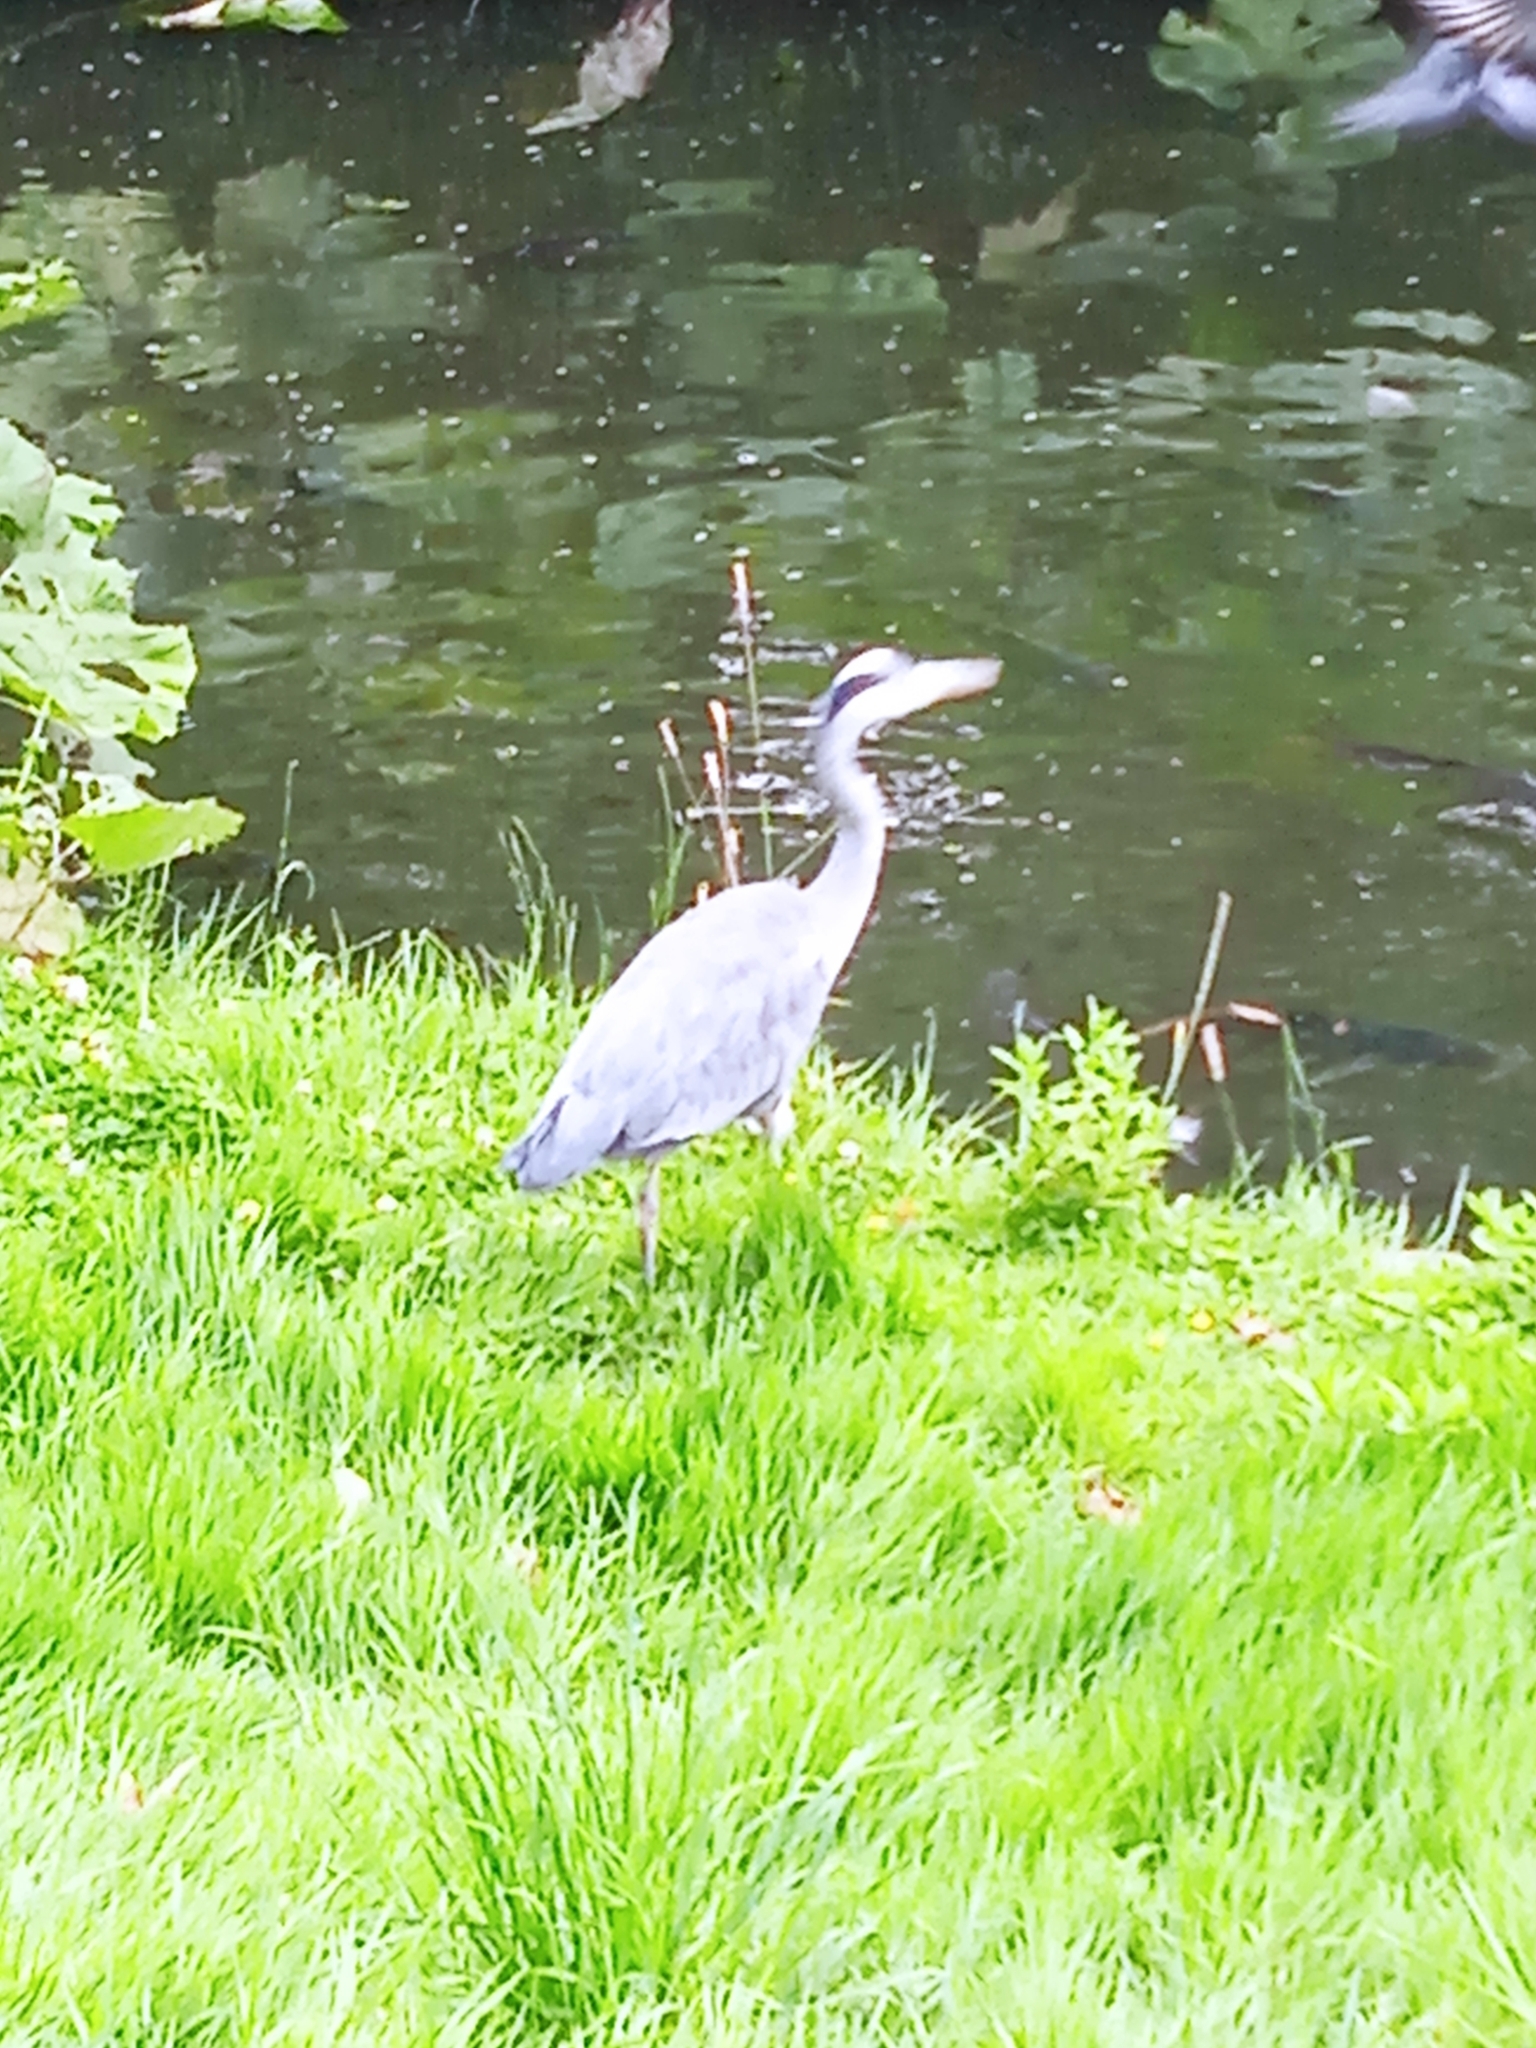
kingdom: Animalia
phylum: Chordata
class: Aves
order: Pelecaniformes
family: Ardeidae
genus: Ardea
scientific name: Ardea cinerea
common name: Grey heron
